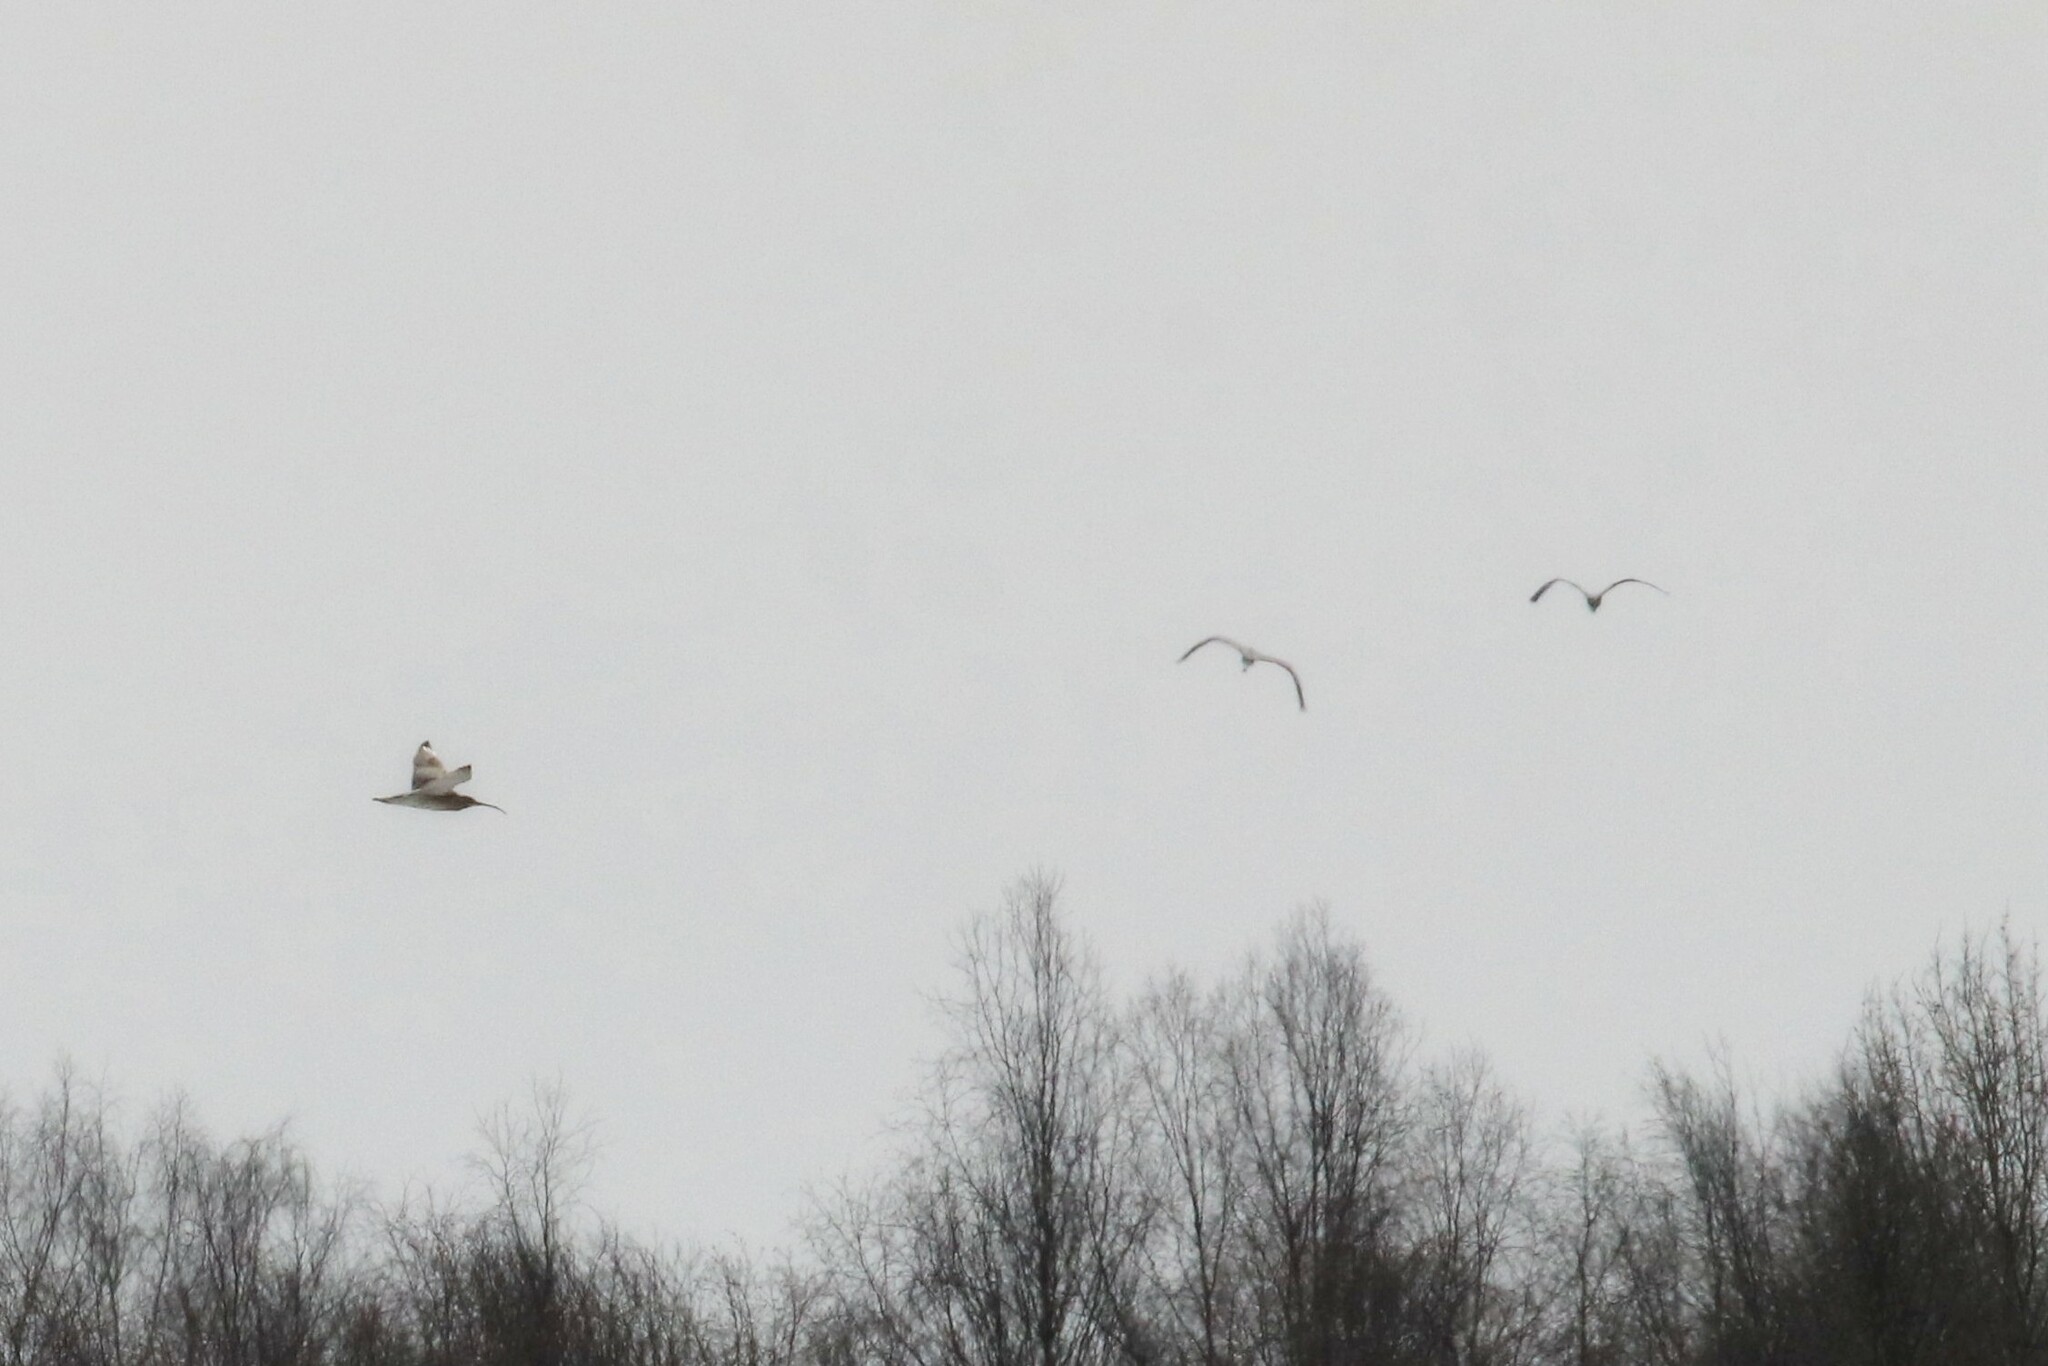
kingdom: Animalia
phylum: Chordata
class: Aves
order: Charadriiformes
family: Scolopacidae
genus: Numenius
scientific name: Numenius arquata
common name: Eurasian curlew
